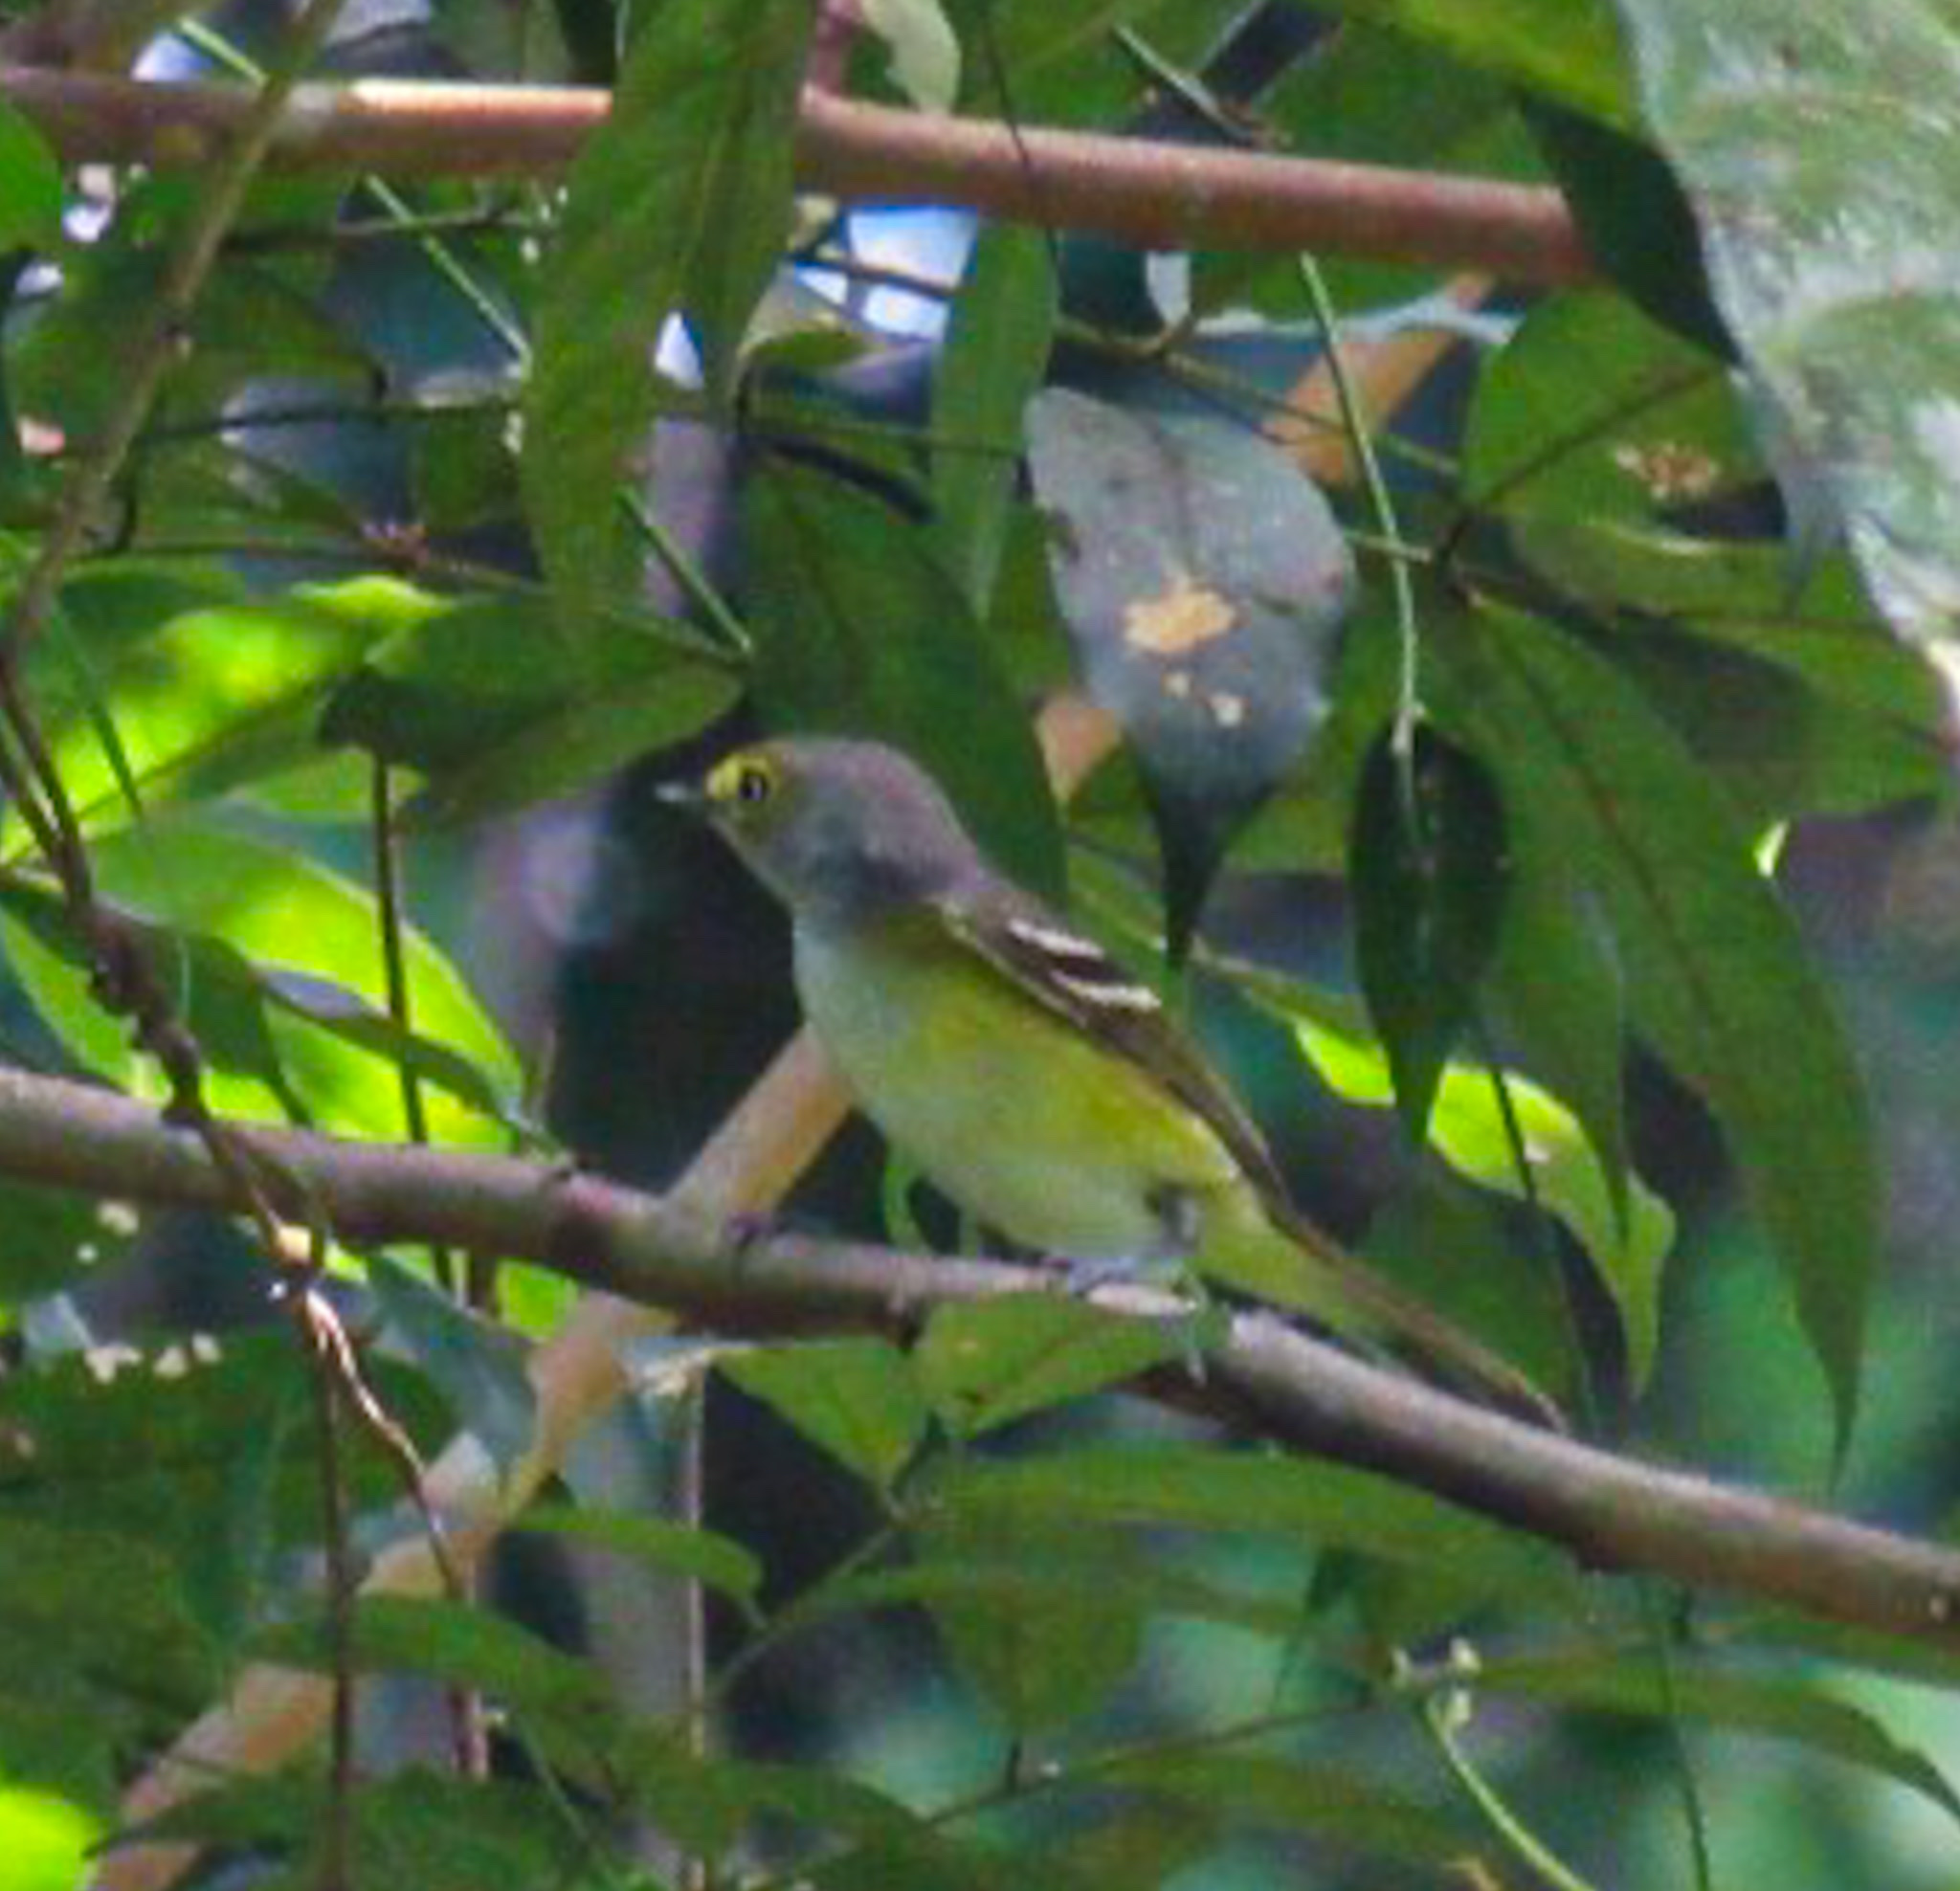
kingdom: Animalia
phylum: Chordata
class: Aves
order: Passeriformes
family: Vireonidae
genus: Vireo
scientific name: Vireo griseus
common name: White-eyed vireo
